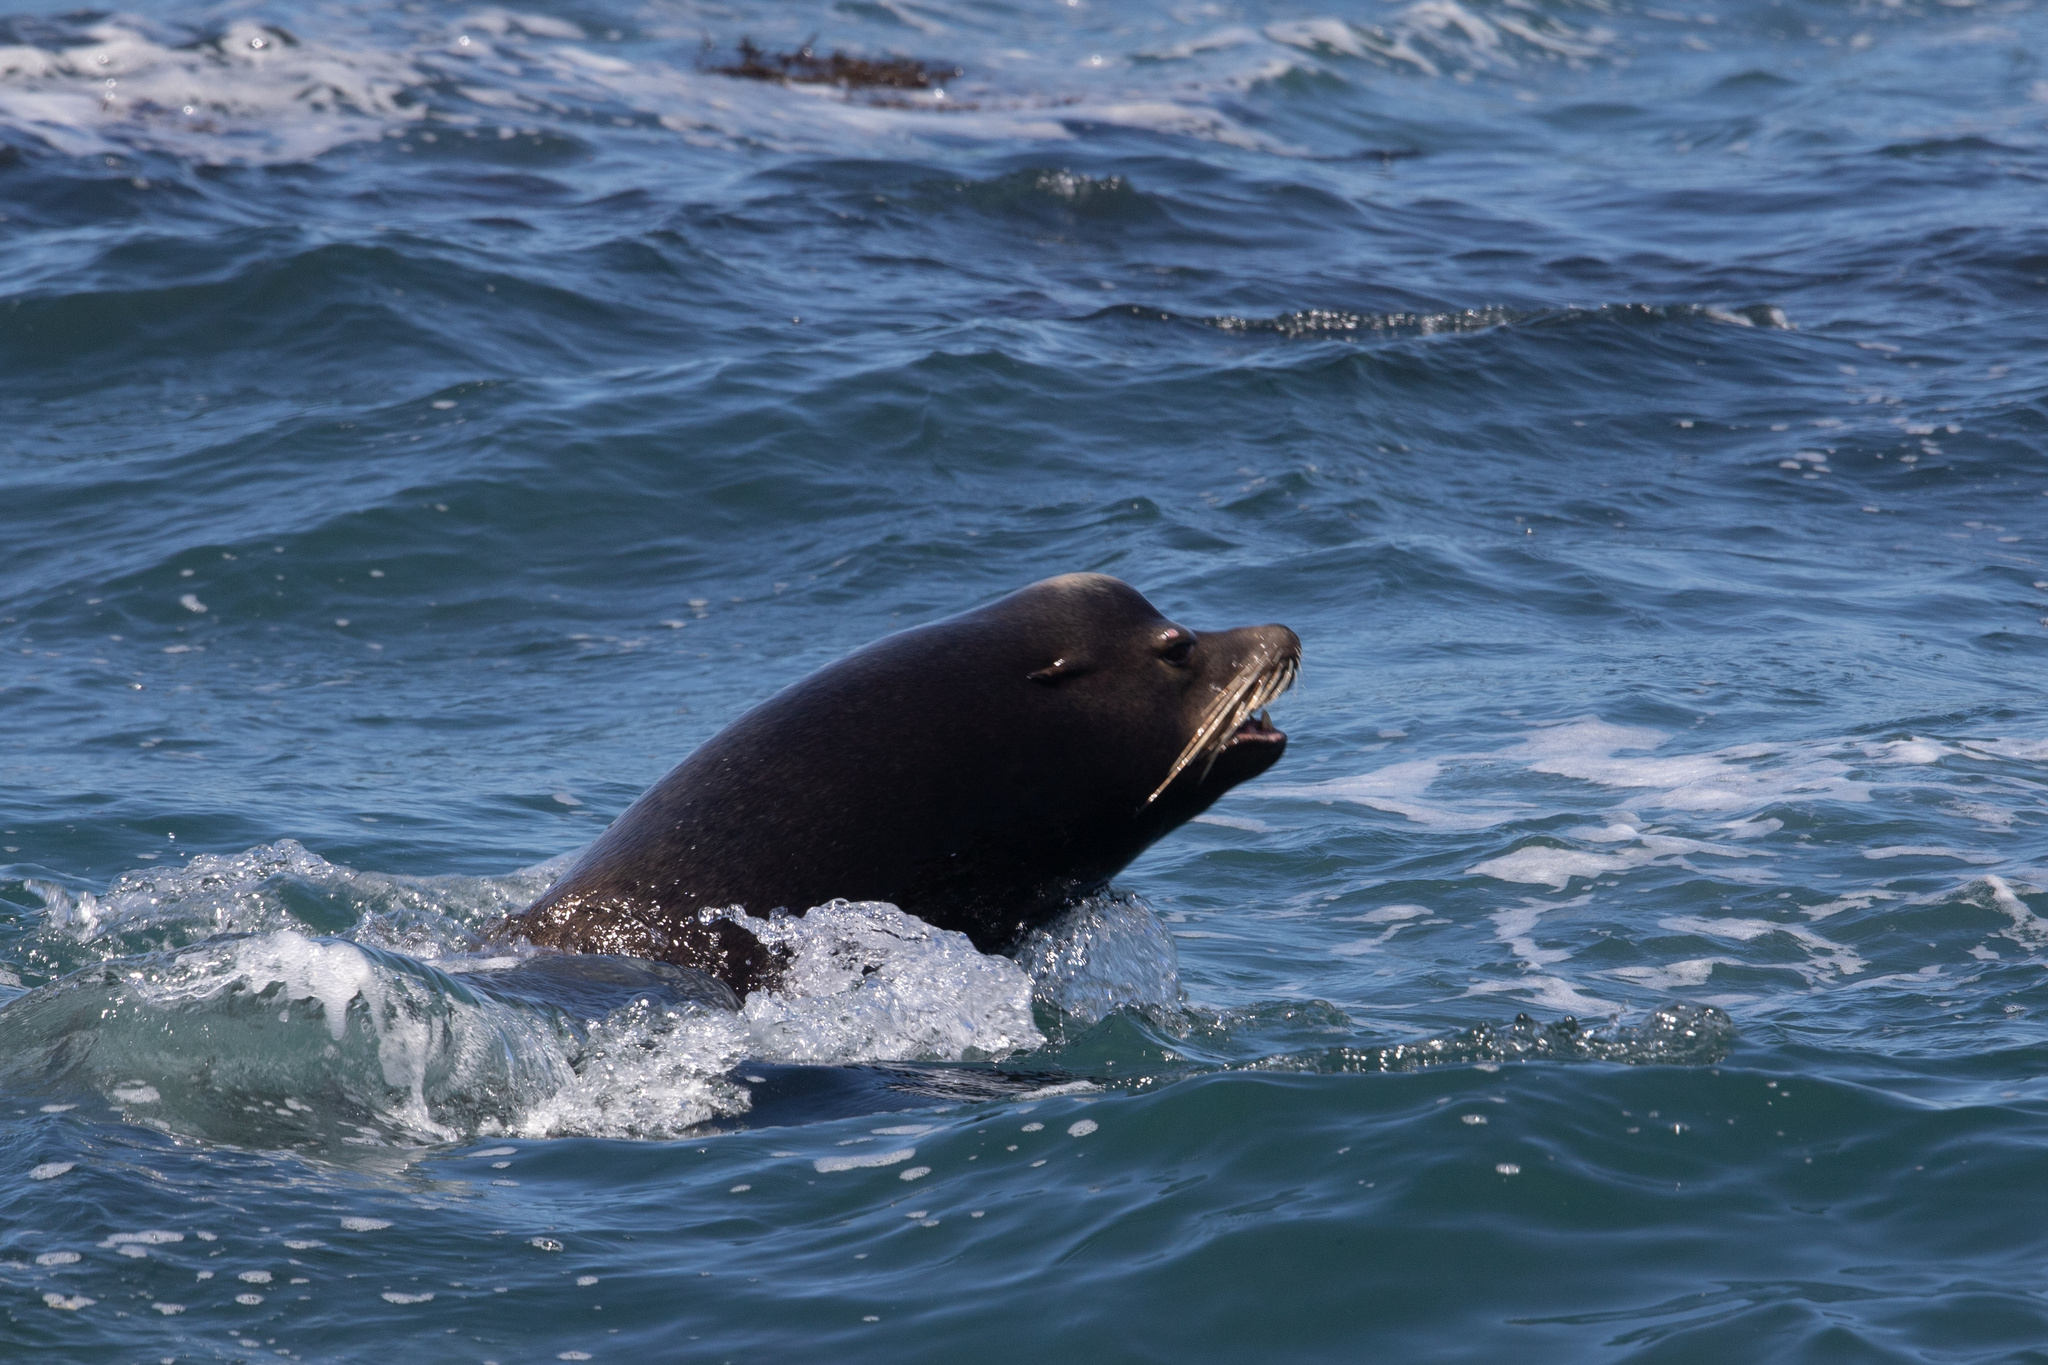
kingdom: Animalia
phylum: Chordata
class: Mammalia
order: Carnivora
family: Otariidae
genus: Zalophus
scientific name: Zalophus californianus
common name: California sea lion
